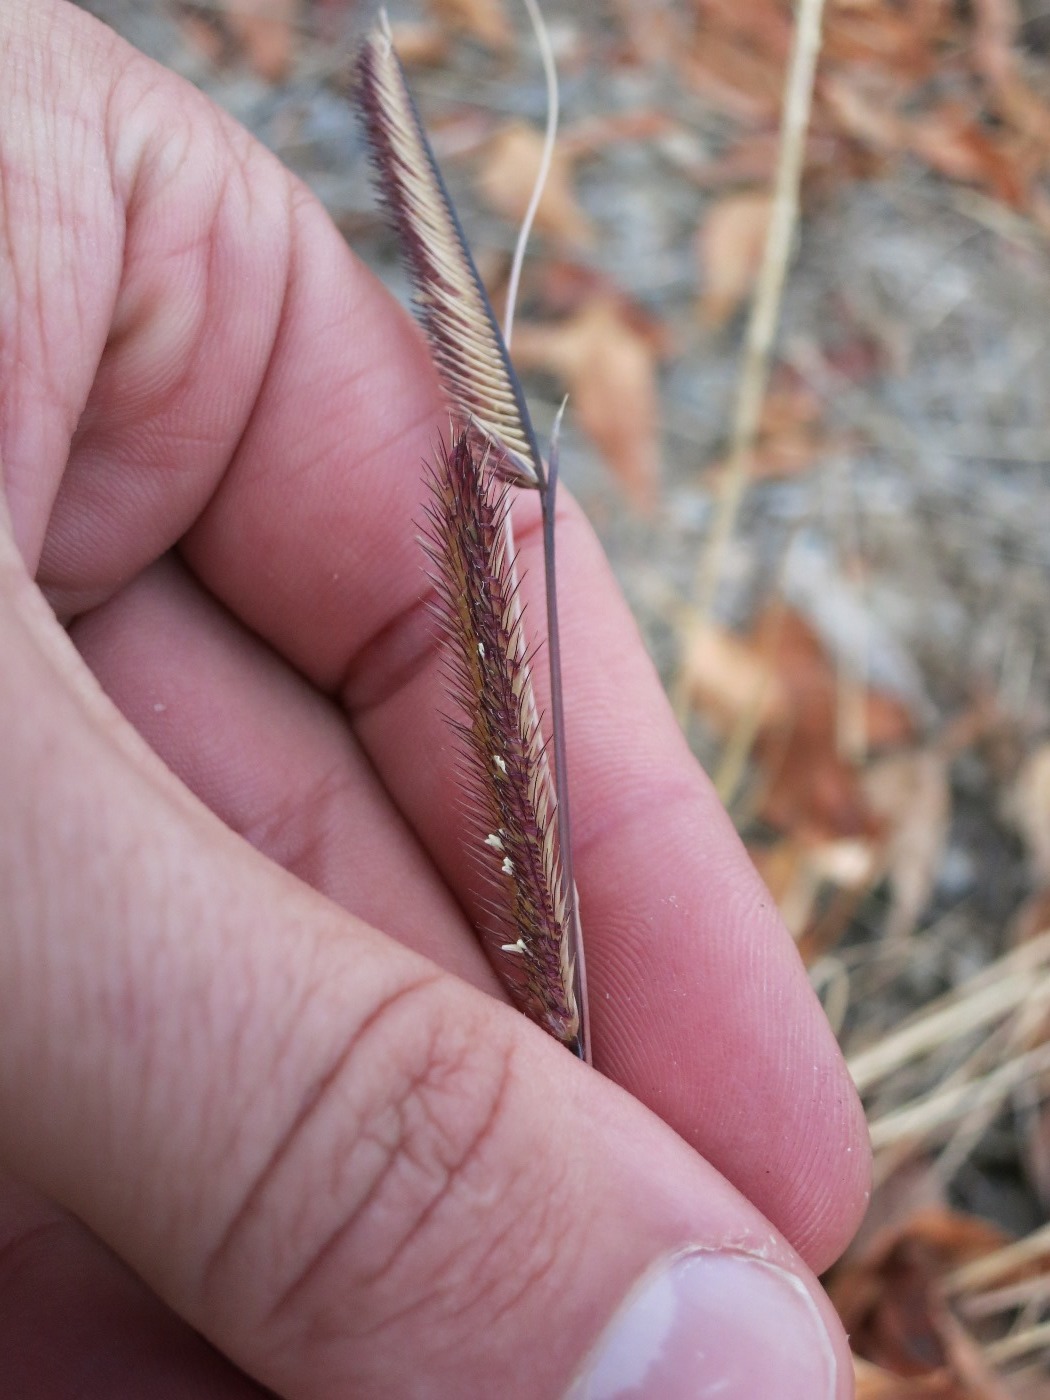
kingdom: Plantae
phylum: Tracheophyta
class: Liliopsida
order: Poales
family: Poaceae
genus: Bouteloua
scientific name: Bouteloua gracilis
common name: Blue grama
